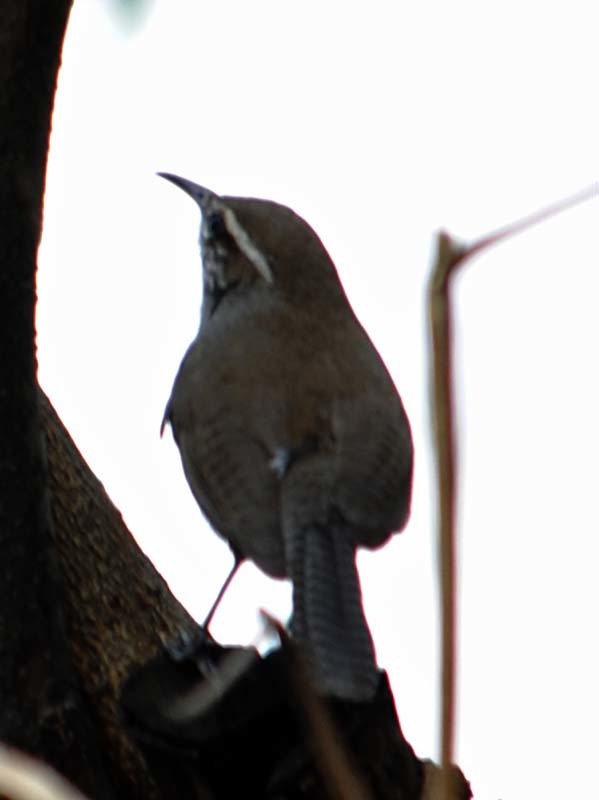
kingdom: Animalia
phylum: Chordata
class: Aves
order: Passeriformes
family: Troglodytidae
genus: Thryomanes
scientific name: Thryomanes bewickii
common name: Bewick's wren
